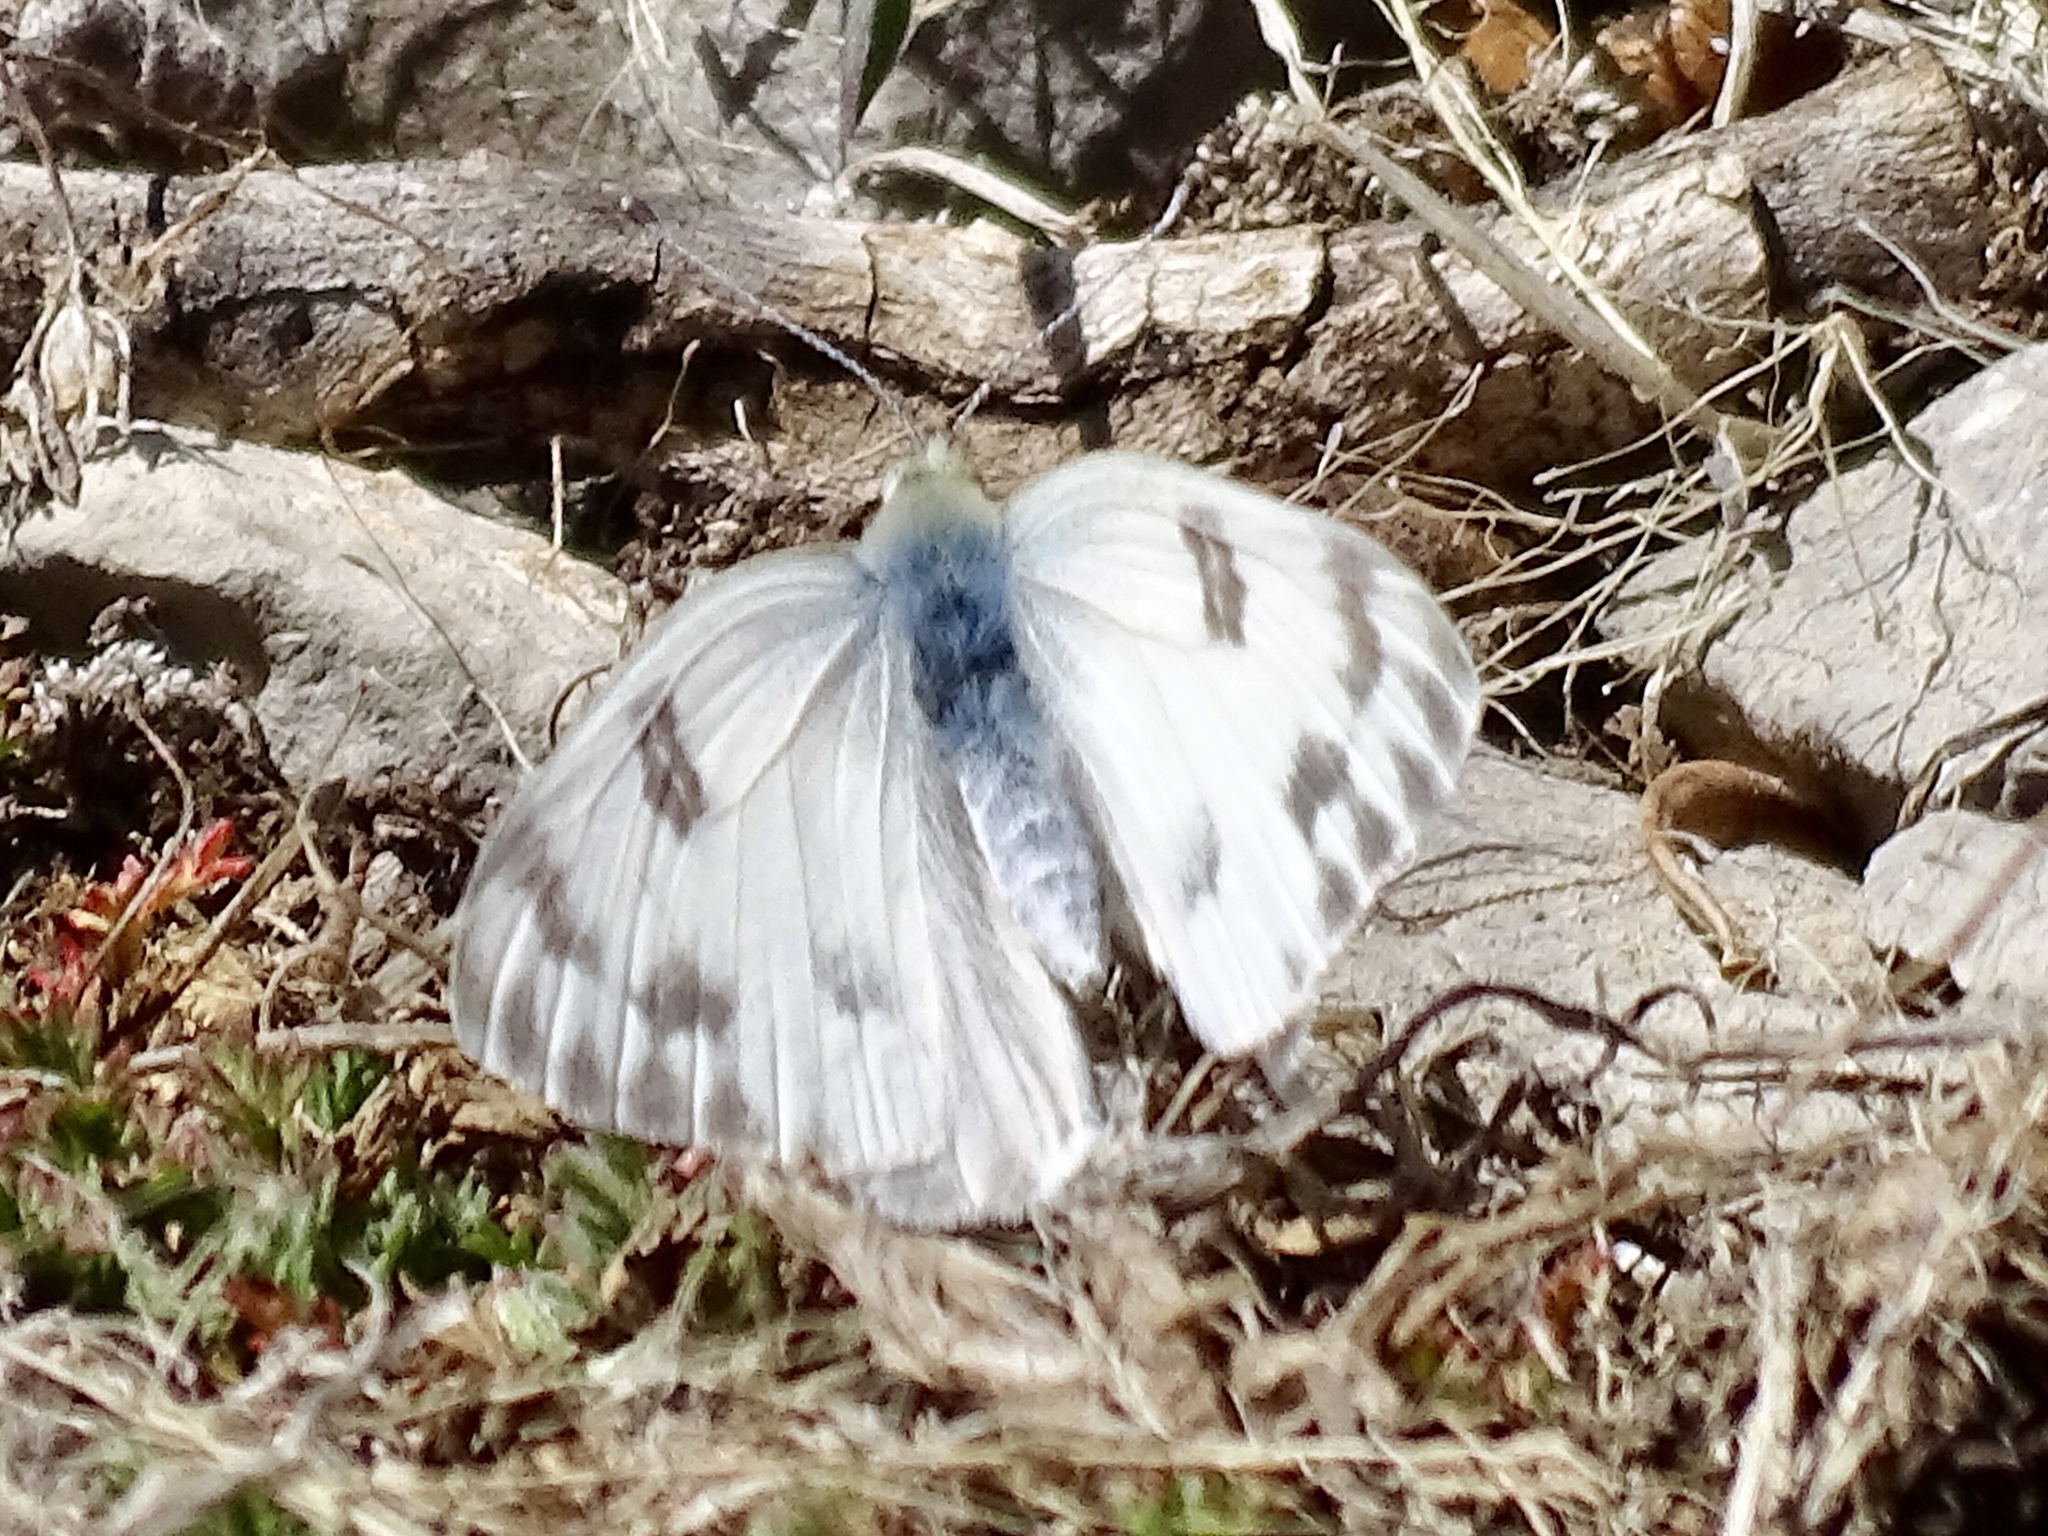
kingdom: Animalia
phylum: Arthropoda
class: Insecta
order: Lepidoptera
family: Pieridae
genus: Pontia
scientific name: Pontia protodice
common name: Checkered white
